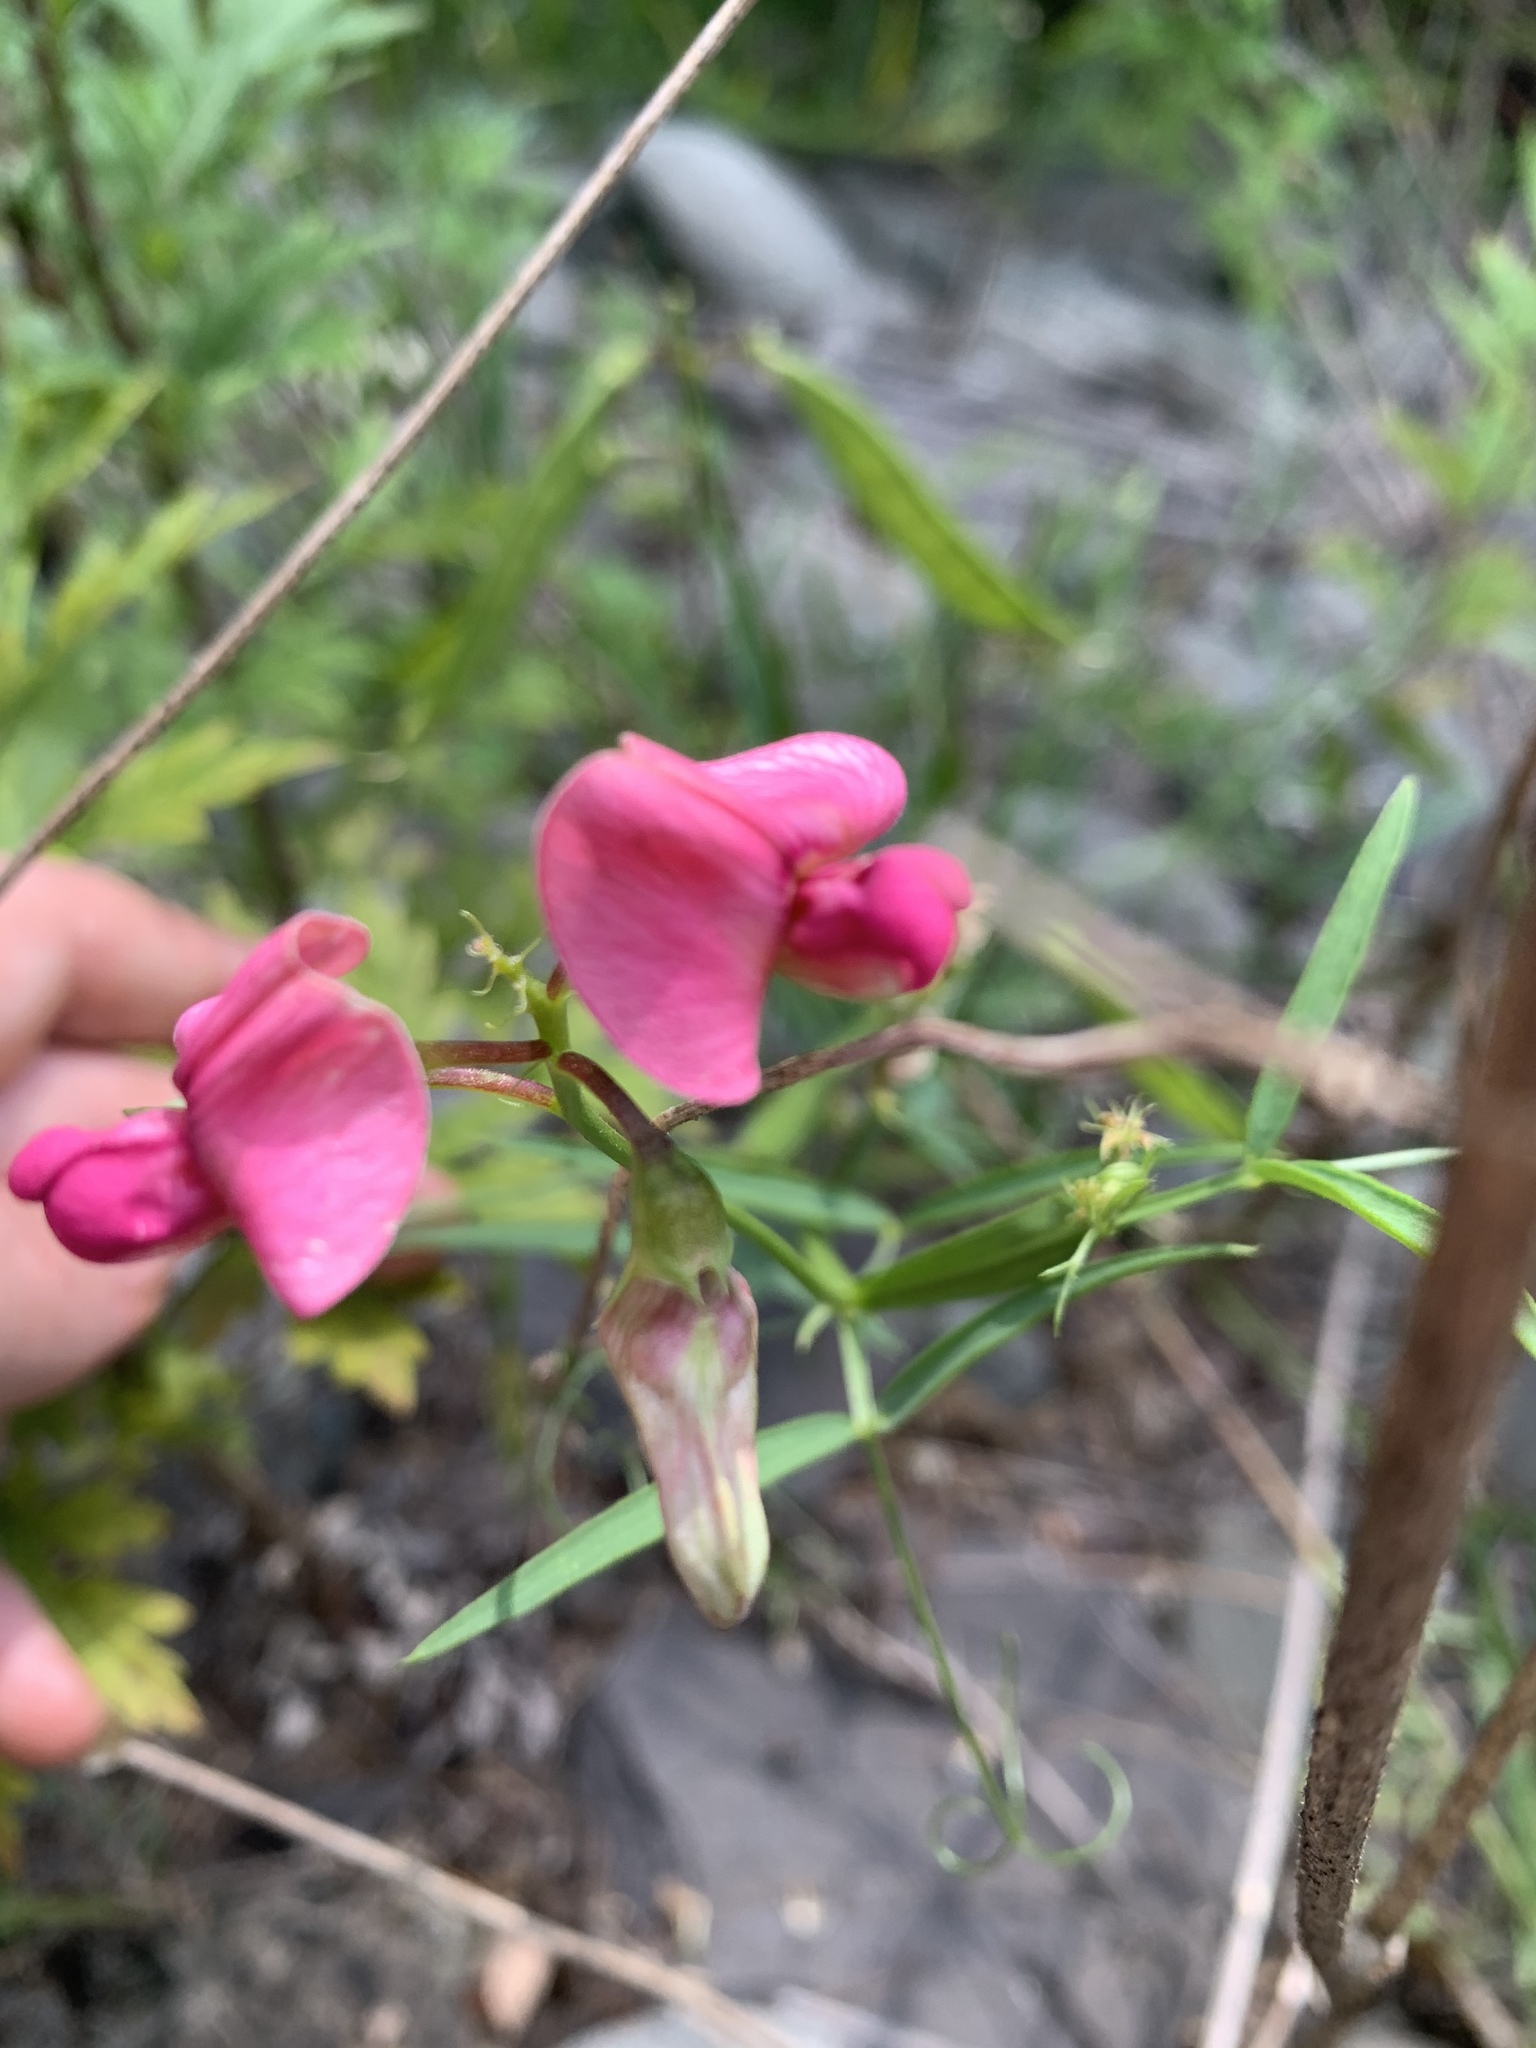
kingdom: Plantae
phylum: Tracheophyta
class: Magnoliopsida
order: Fabales
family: Fabaceae
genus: Lathyrus
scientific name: Lathyrus sylvestris
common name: Flat pea
